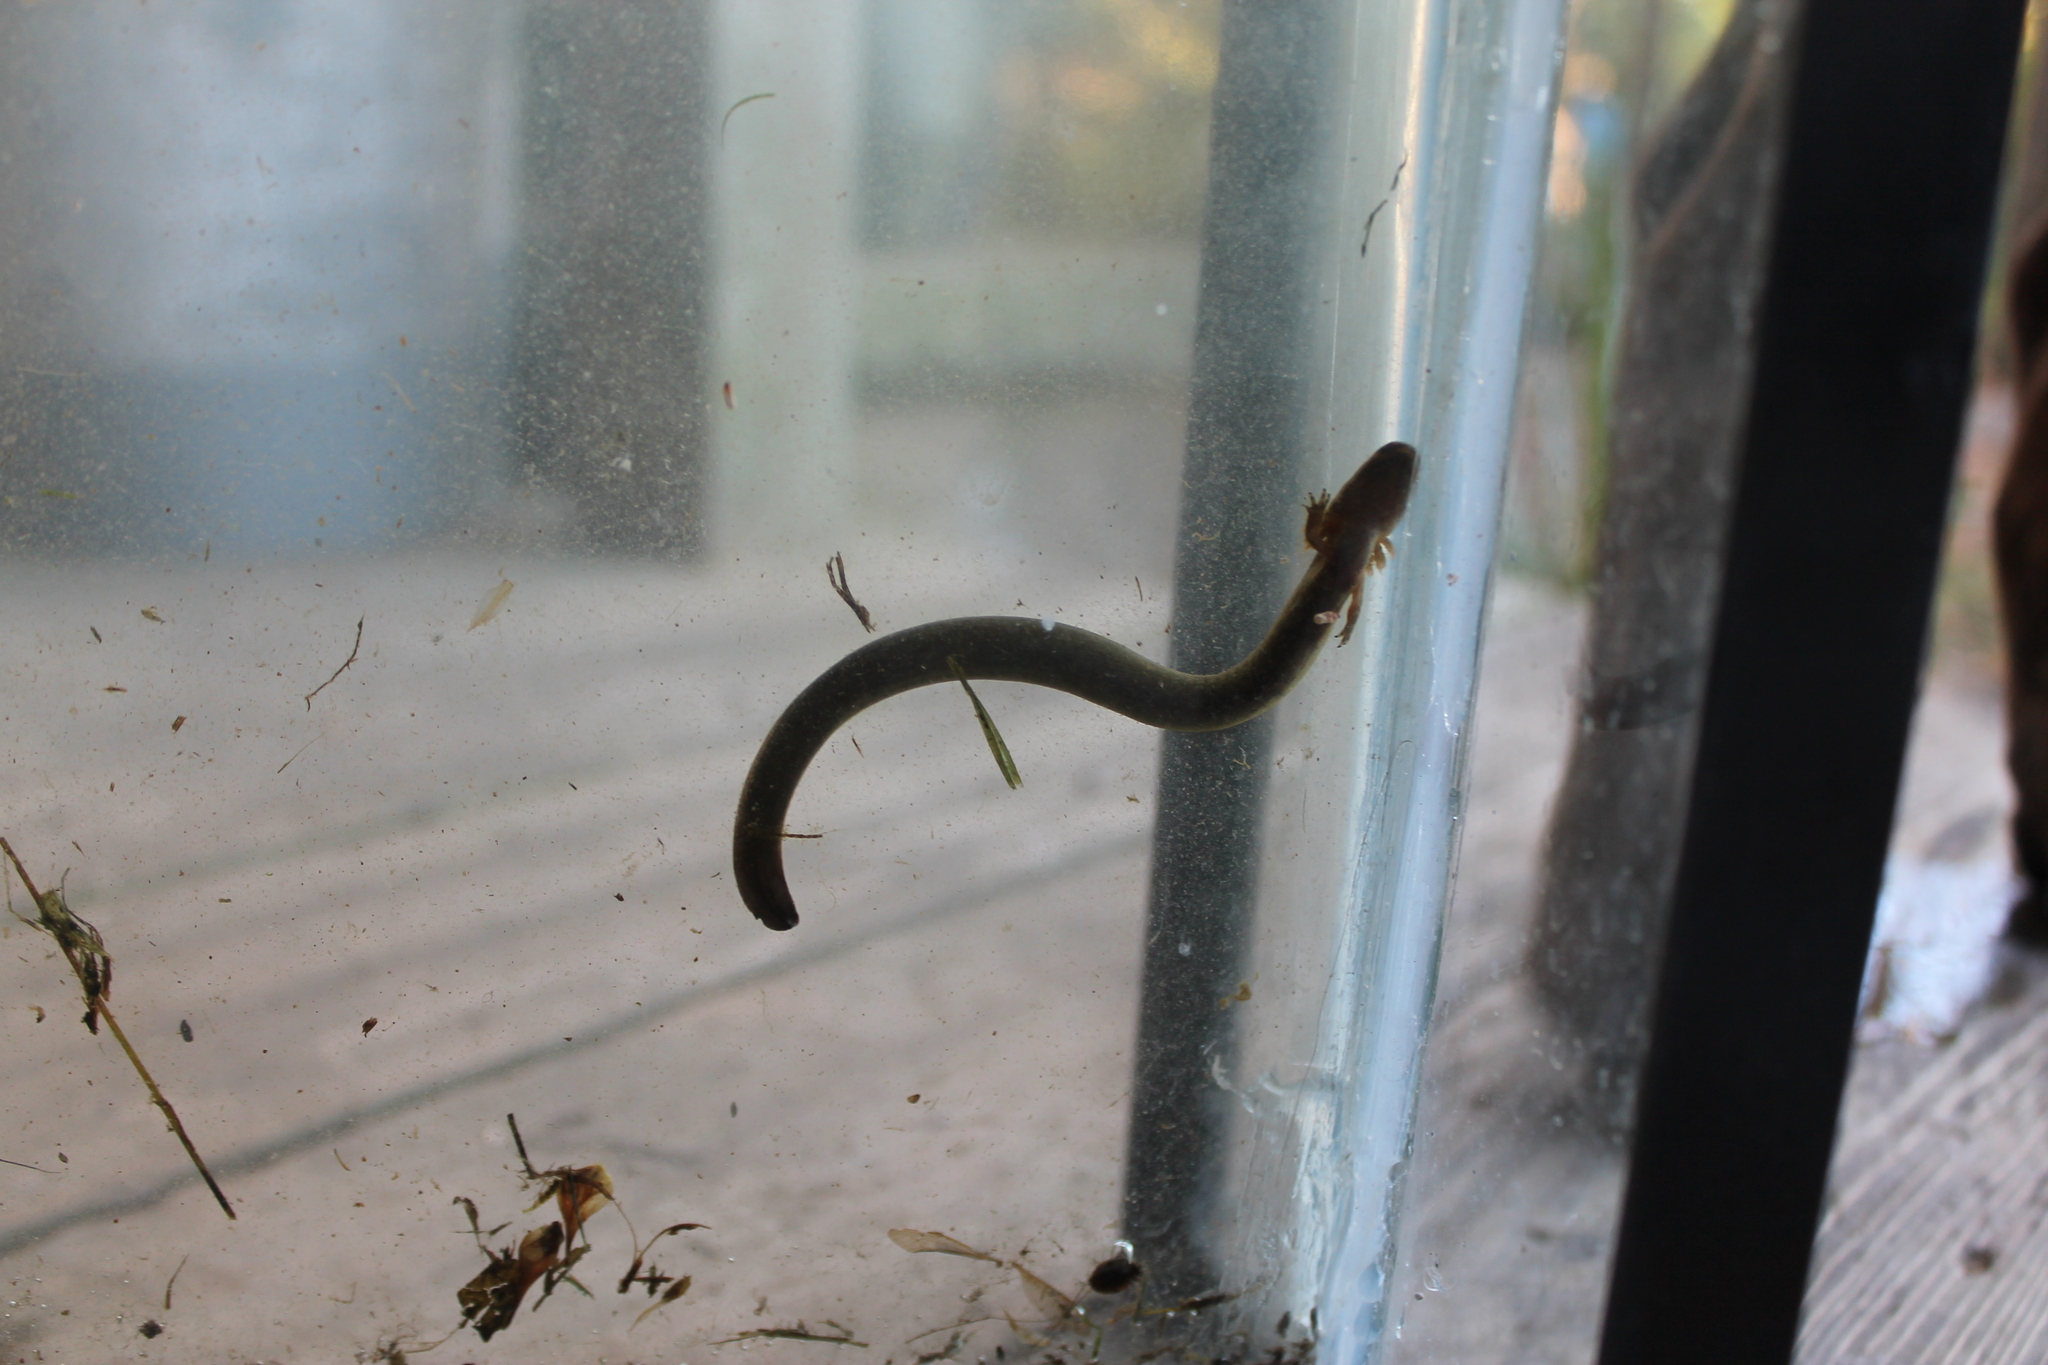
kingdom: Animalia
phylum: Chordata
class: Amphibia
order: Caudata
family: Sirenidae
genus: Siren
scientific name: Siren intermedia
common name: Lesser siren
